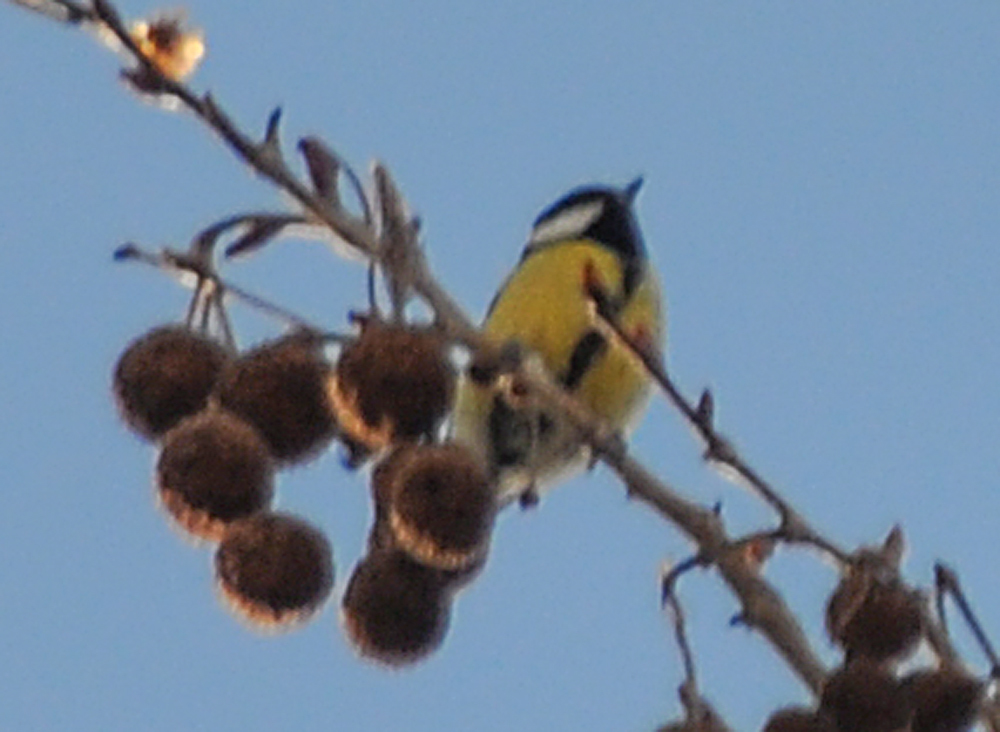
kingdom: Animalia
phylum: Chordata
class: Aves
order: Passeriformes
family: Paridae
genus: Parus
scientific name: Parus major
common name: Great tit
